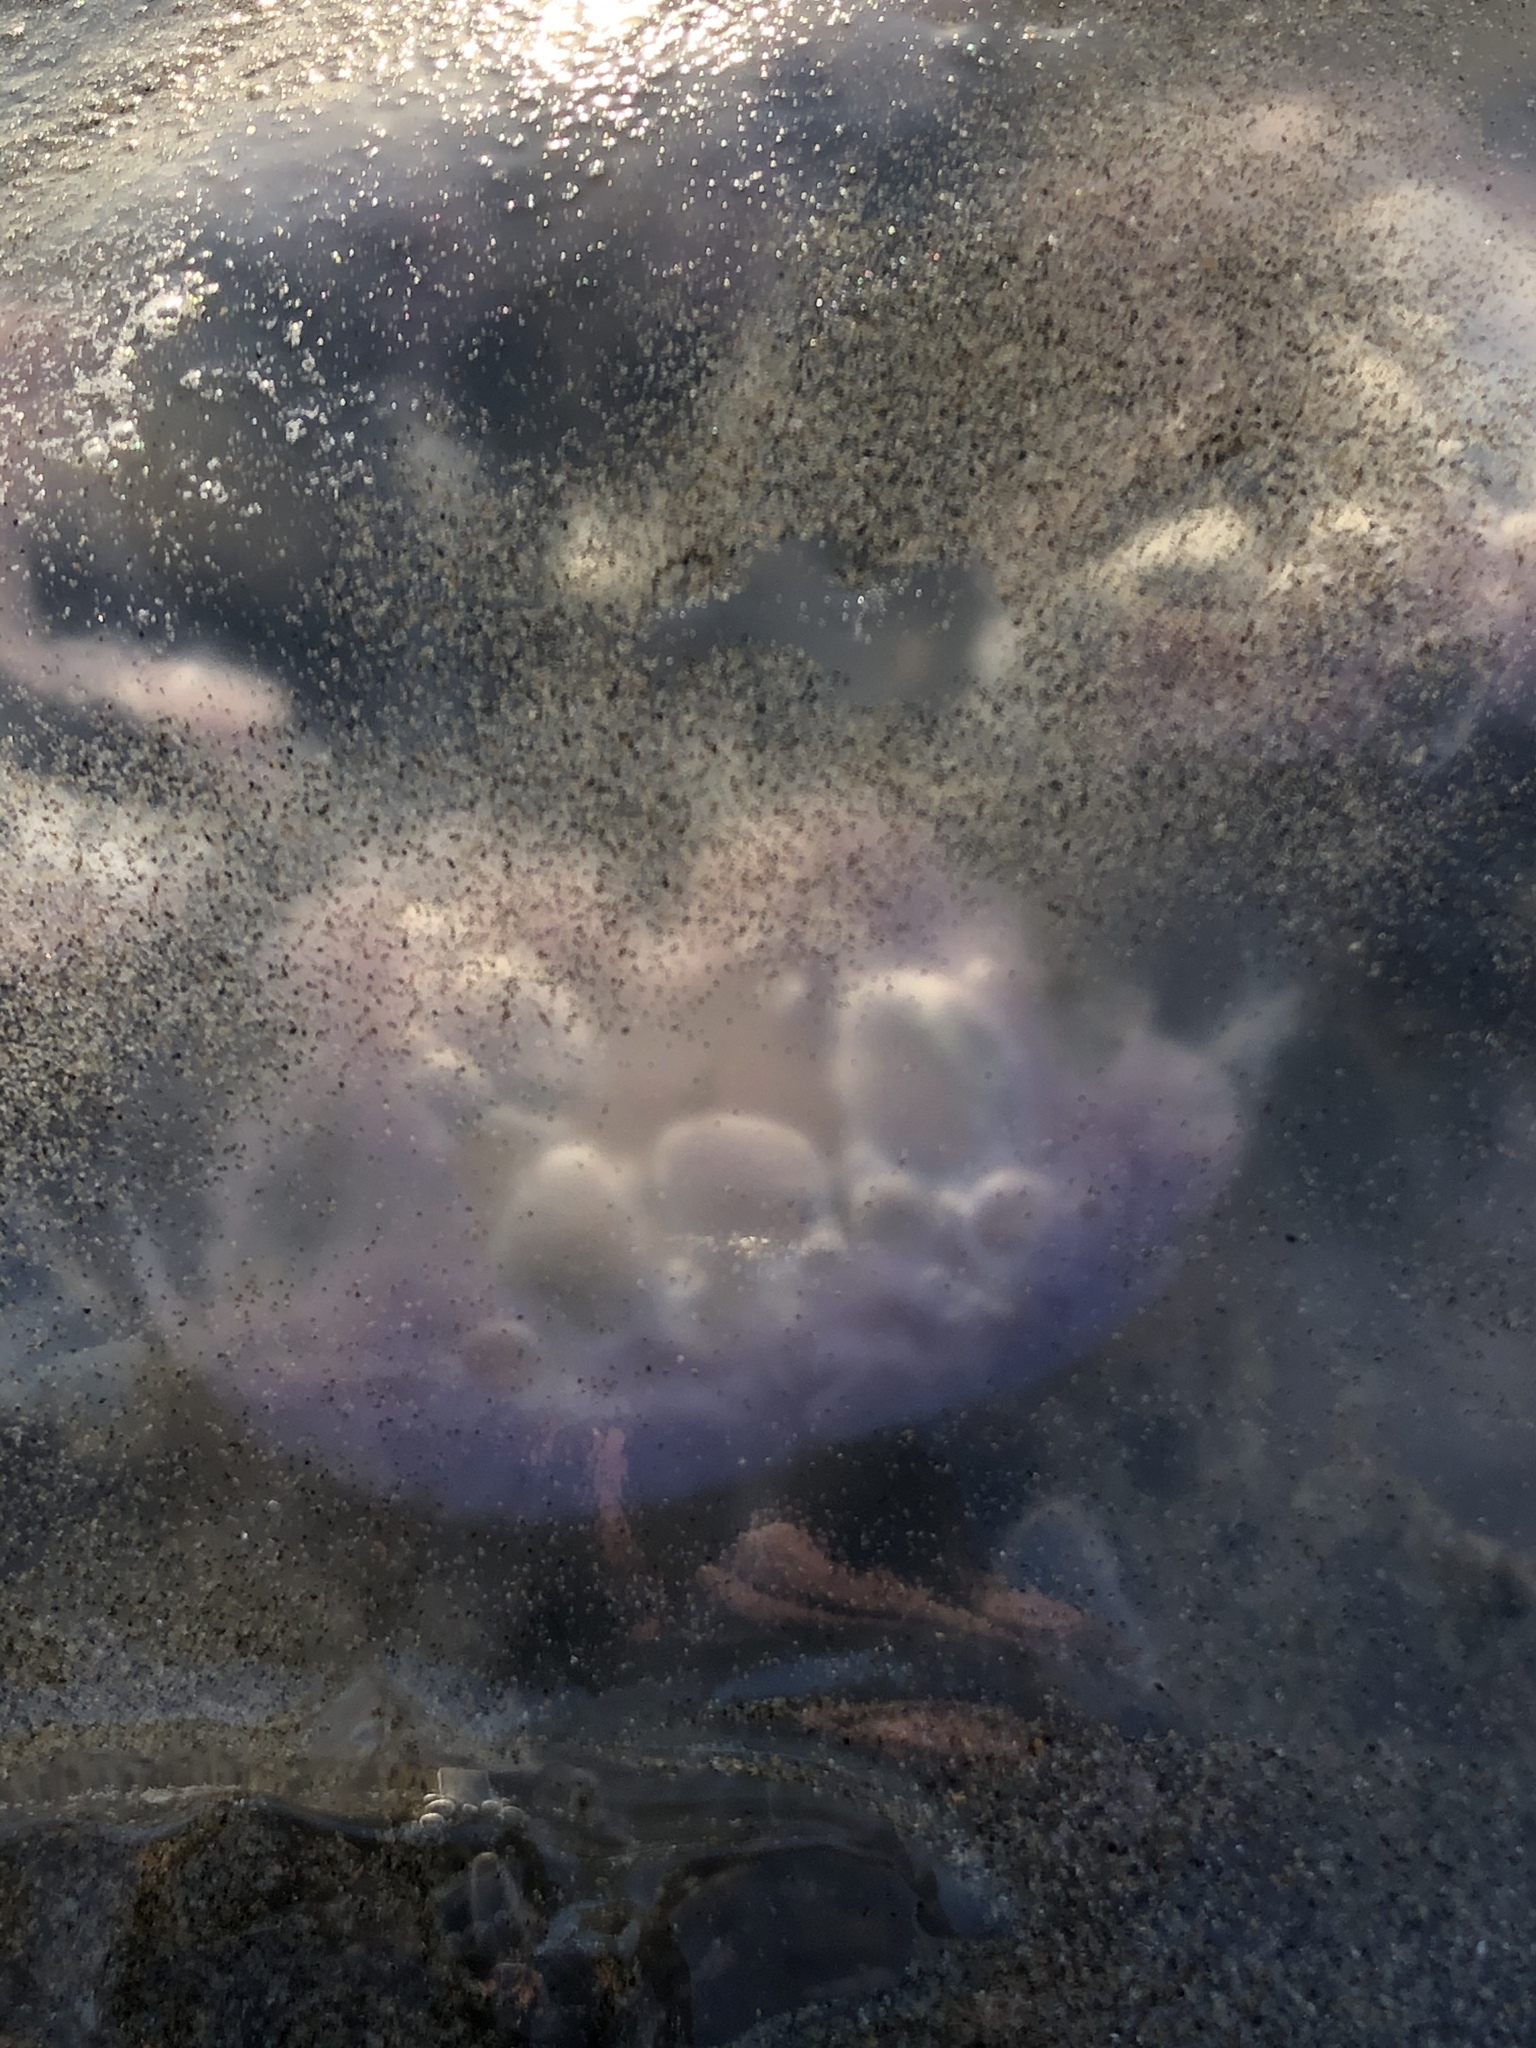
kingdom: Animalia
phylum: Cnidaria
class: Scyphozoa
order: Semaeostomeae
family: Ulmaridae
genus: Aurelia
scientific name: Aurelia labiata
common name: Pacific moon jelly
